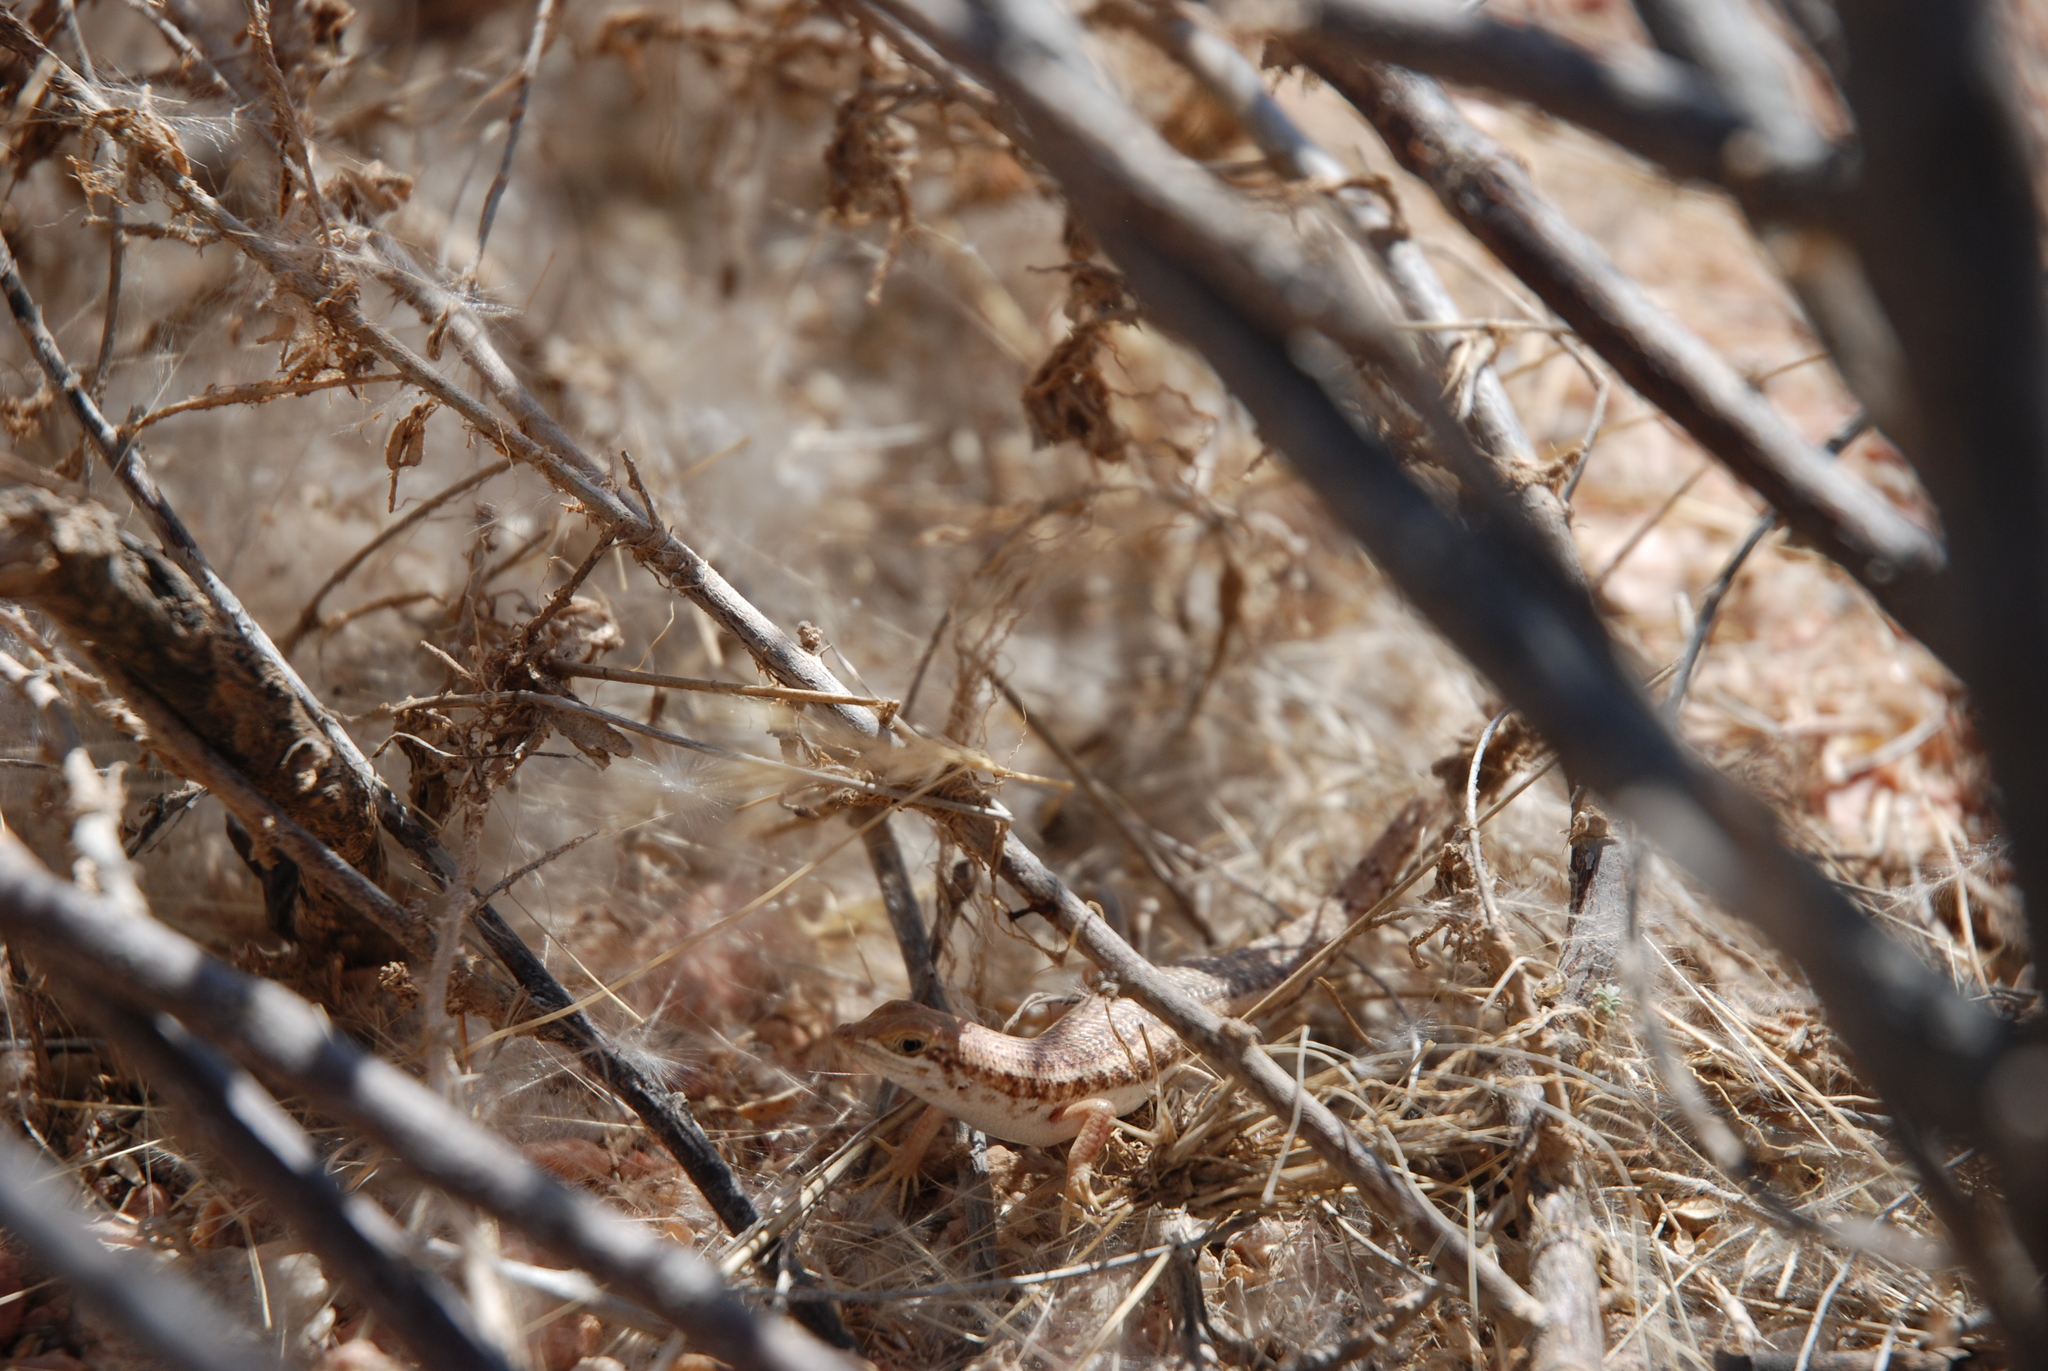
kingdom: Animalia
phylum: Chordata
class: Squamata
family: Scincidae
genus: Trachylepis
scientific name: Trachylepis acutilabris
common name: Sharp-lipped mabuya
